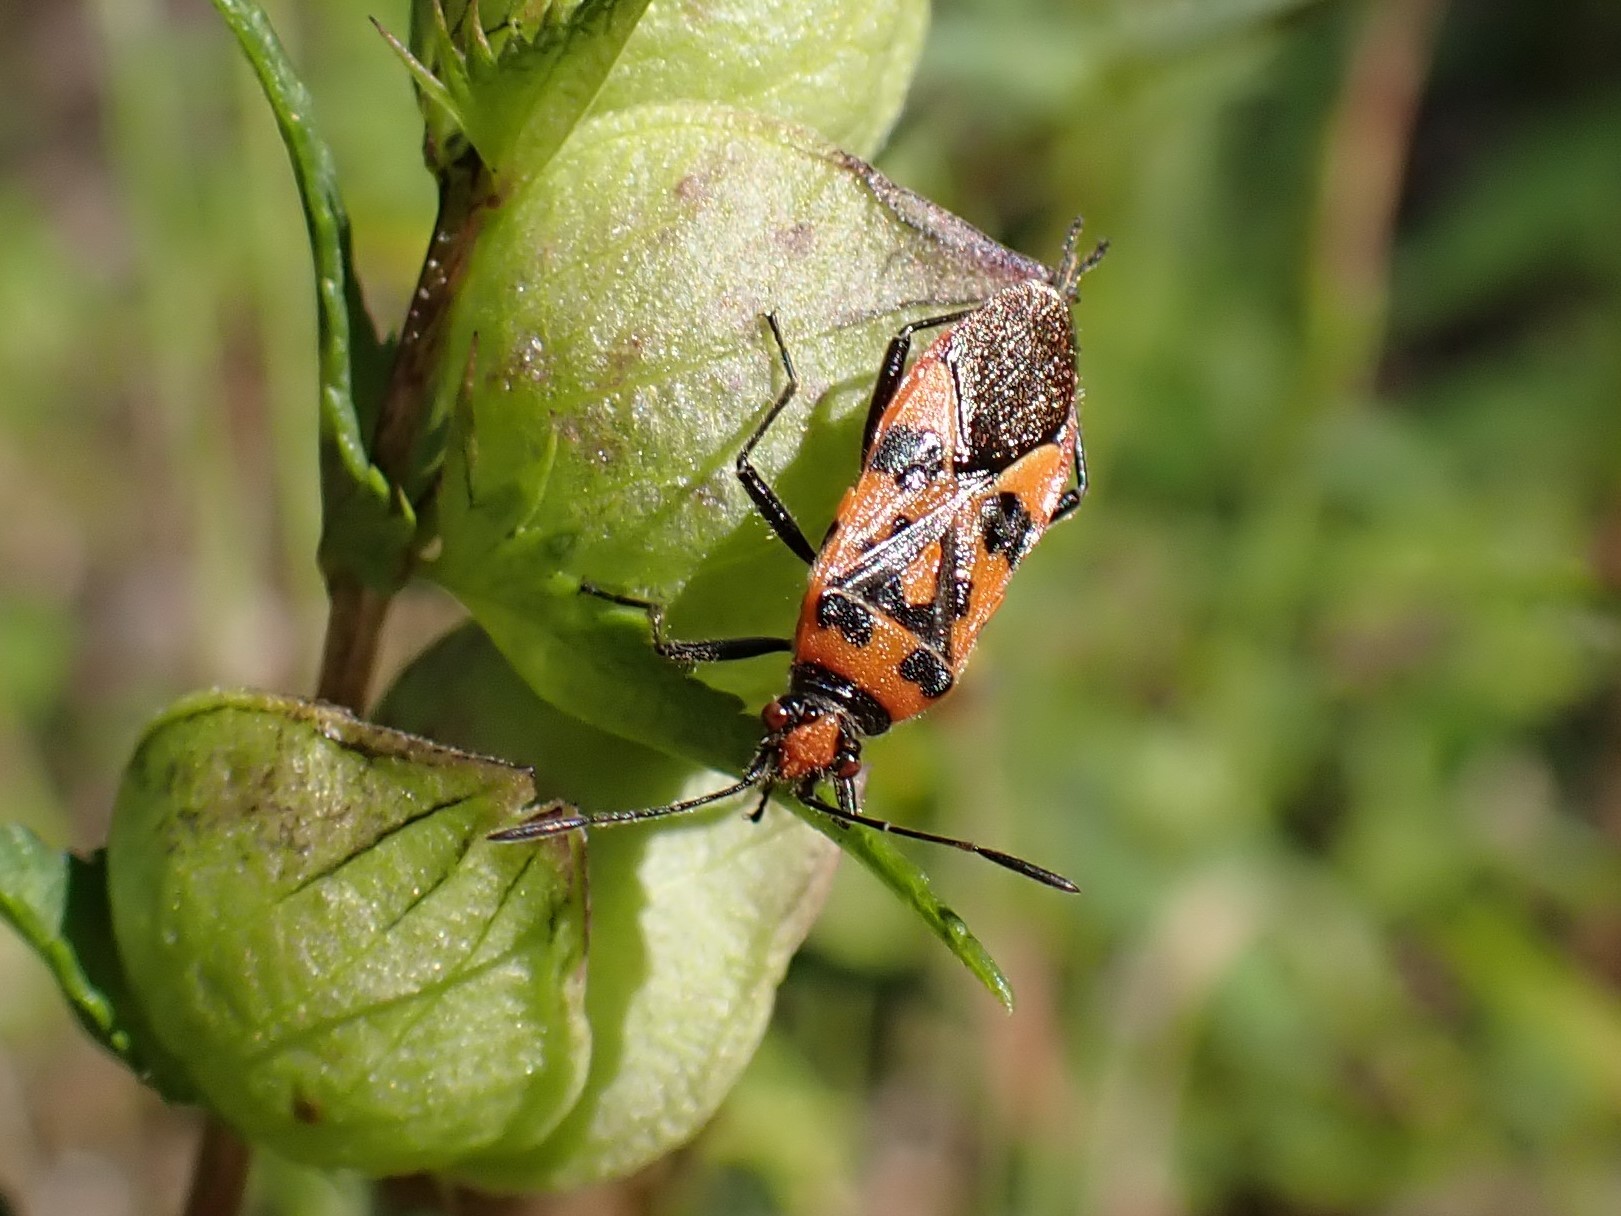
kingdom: Animalia
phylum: Arthropoda
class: Insecta
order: Hemiptera
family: Rhopalidae
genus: Corizus
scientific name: Corizus hyoscyami
